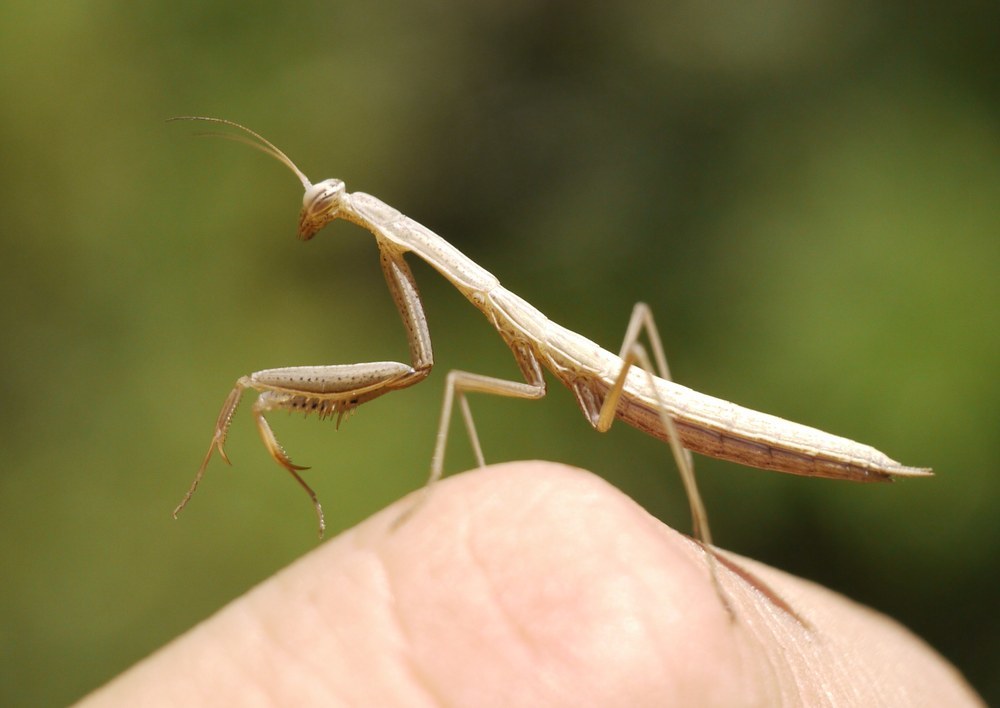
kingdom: Animalia
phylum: Arthropoda
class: Insecta
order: Mantodea
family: Mantidae
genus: Mantis
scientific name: Mantis religiosa
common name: Praying mantis
